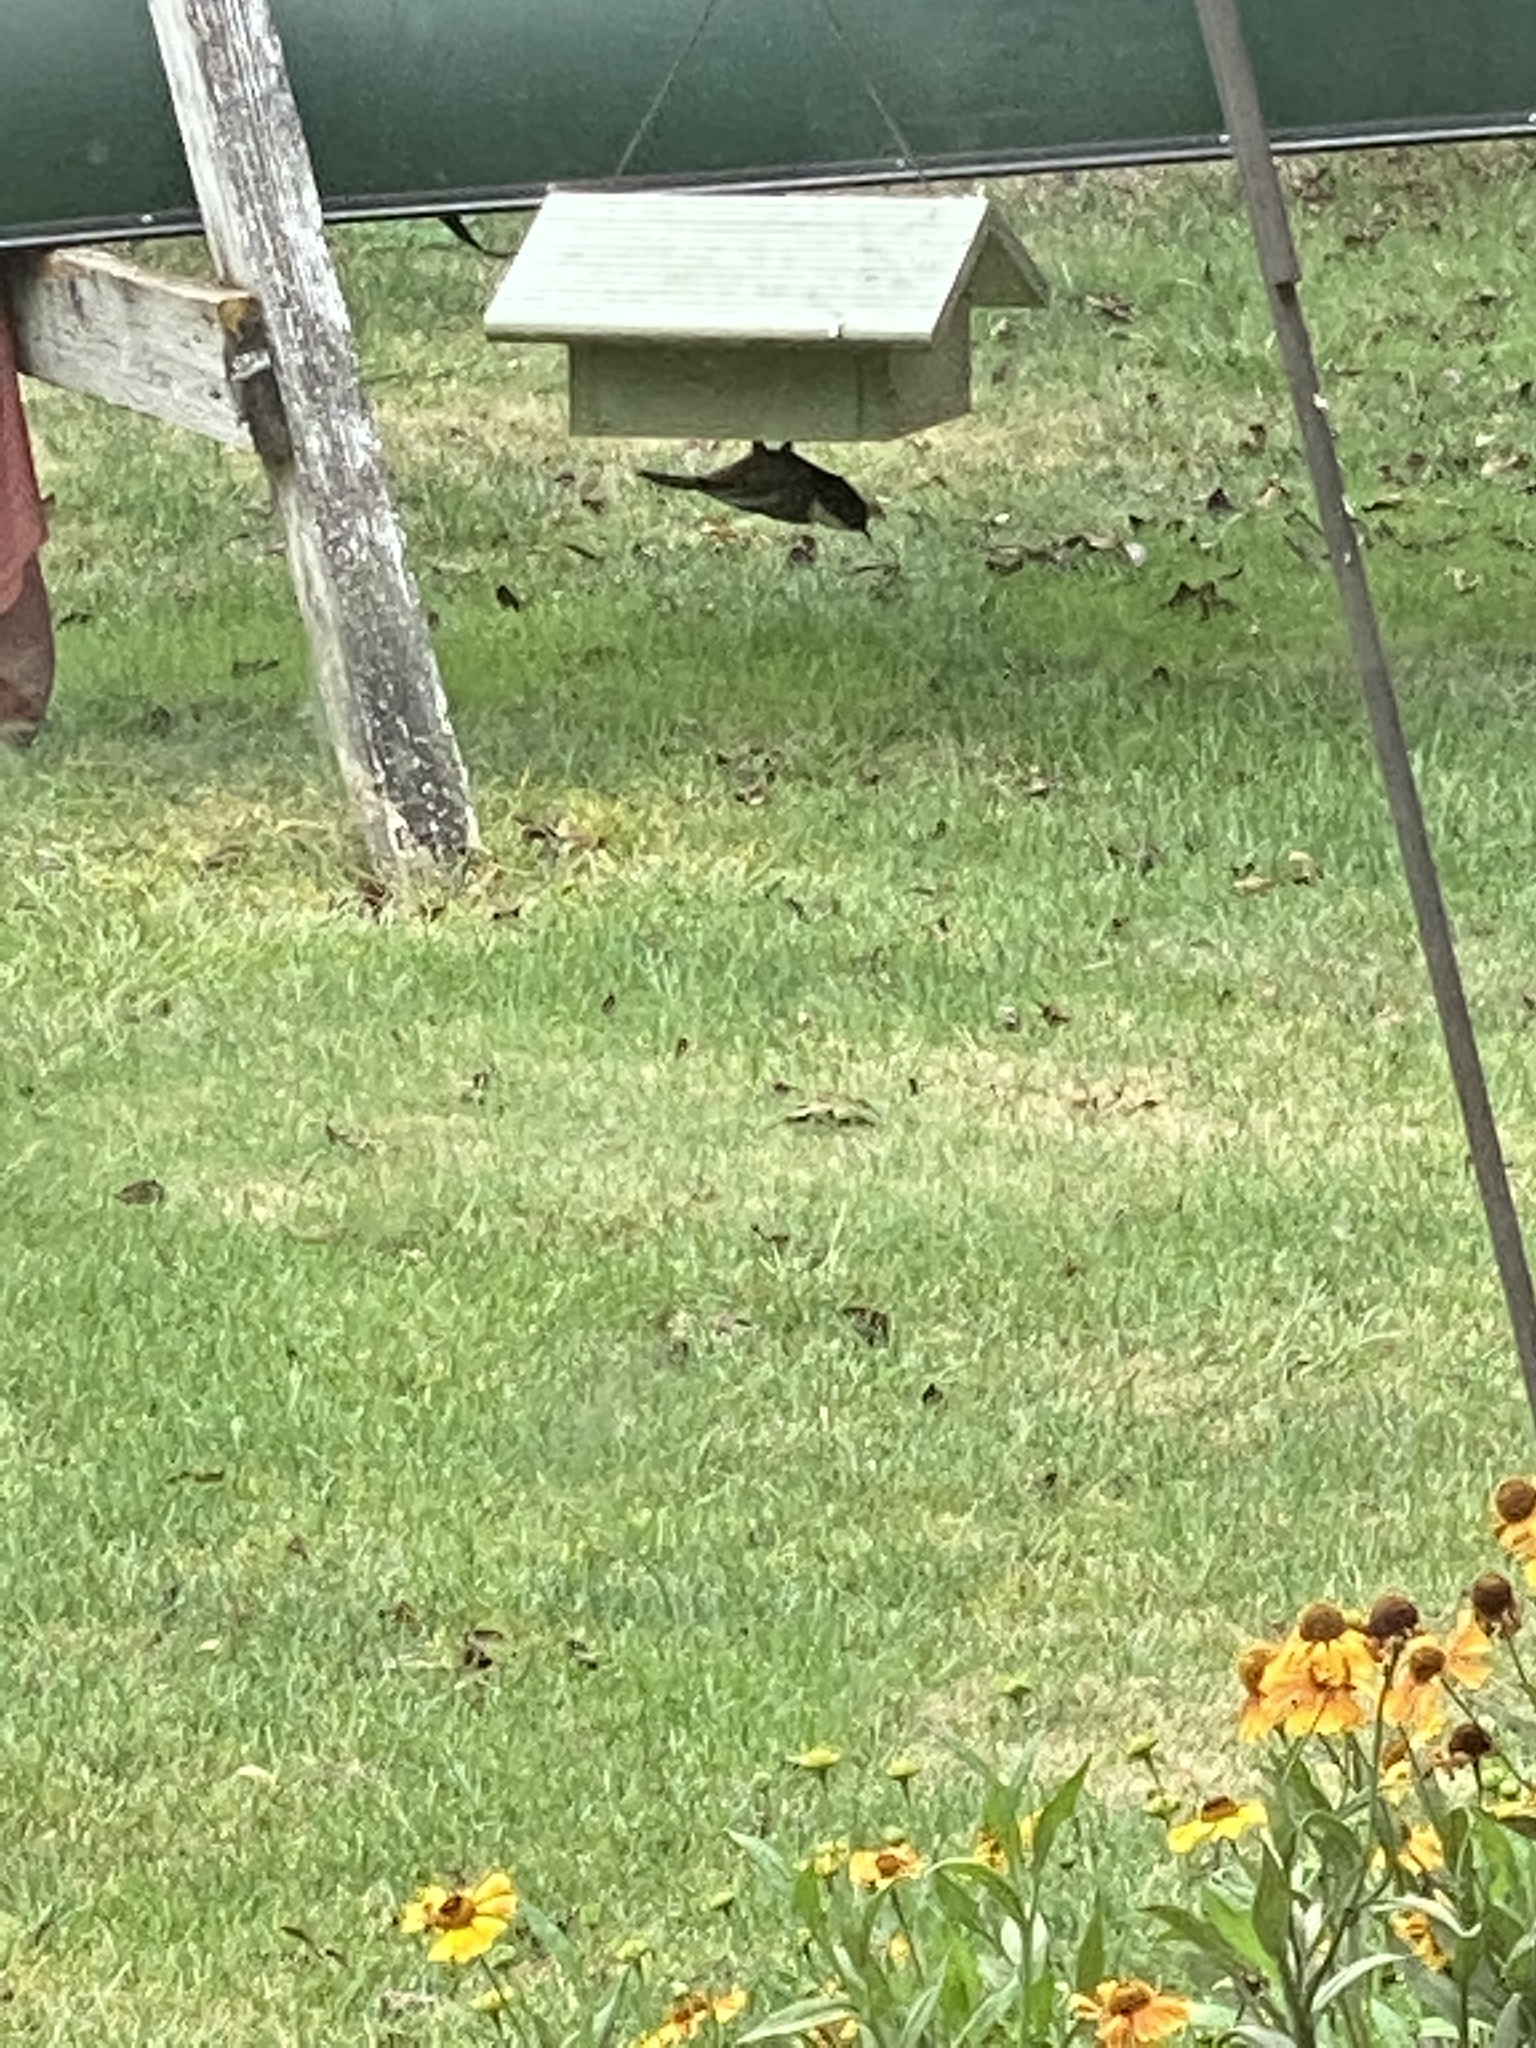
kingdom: Animalia
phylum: Chordata
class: Aves
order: Passeriformes
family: Paridae
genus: Poecile
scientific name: Poecile atricapillus
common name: Black-capped chickadee
